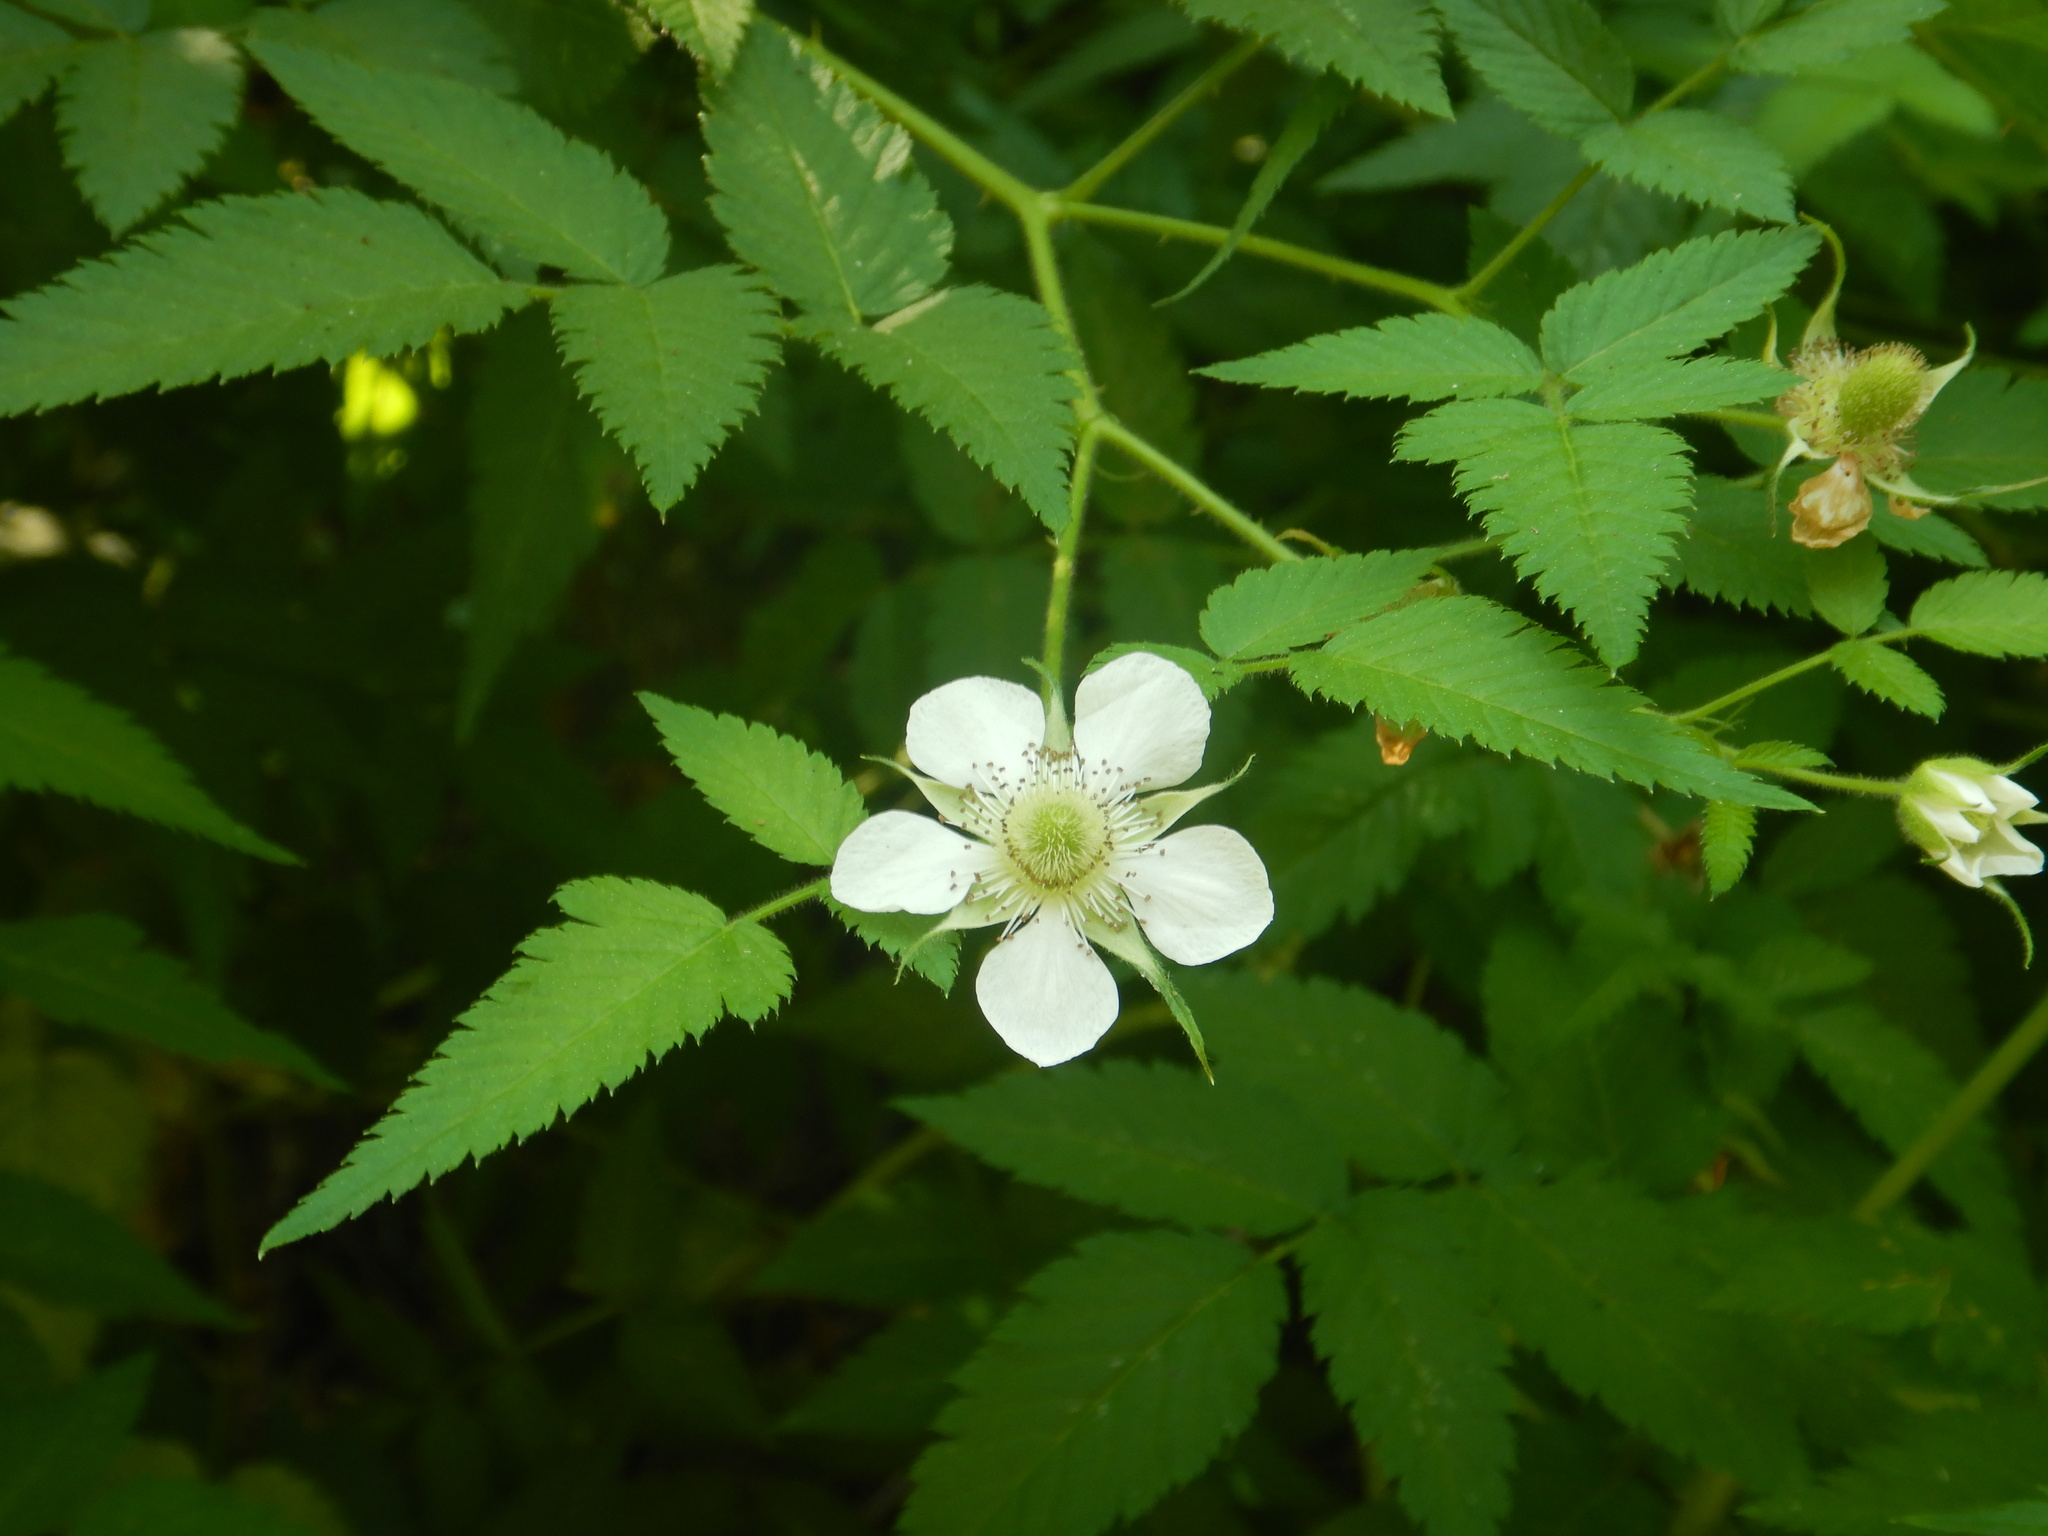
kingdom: Plantae
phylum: Tracheophyta
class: Magnoliopsida
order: Rosales
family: Rosaceae
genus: Rubus
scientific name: Rubus rosifolius
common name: Roseleaf raspberry
